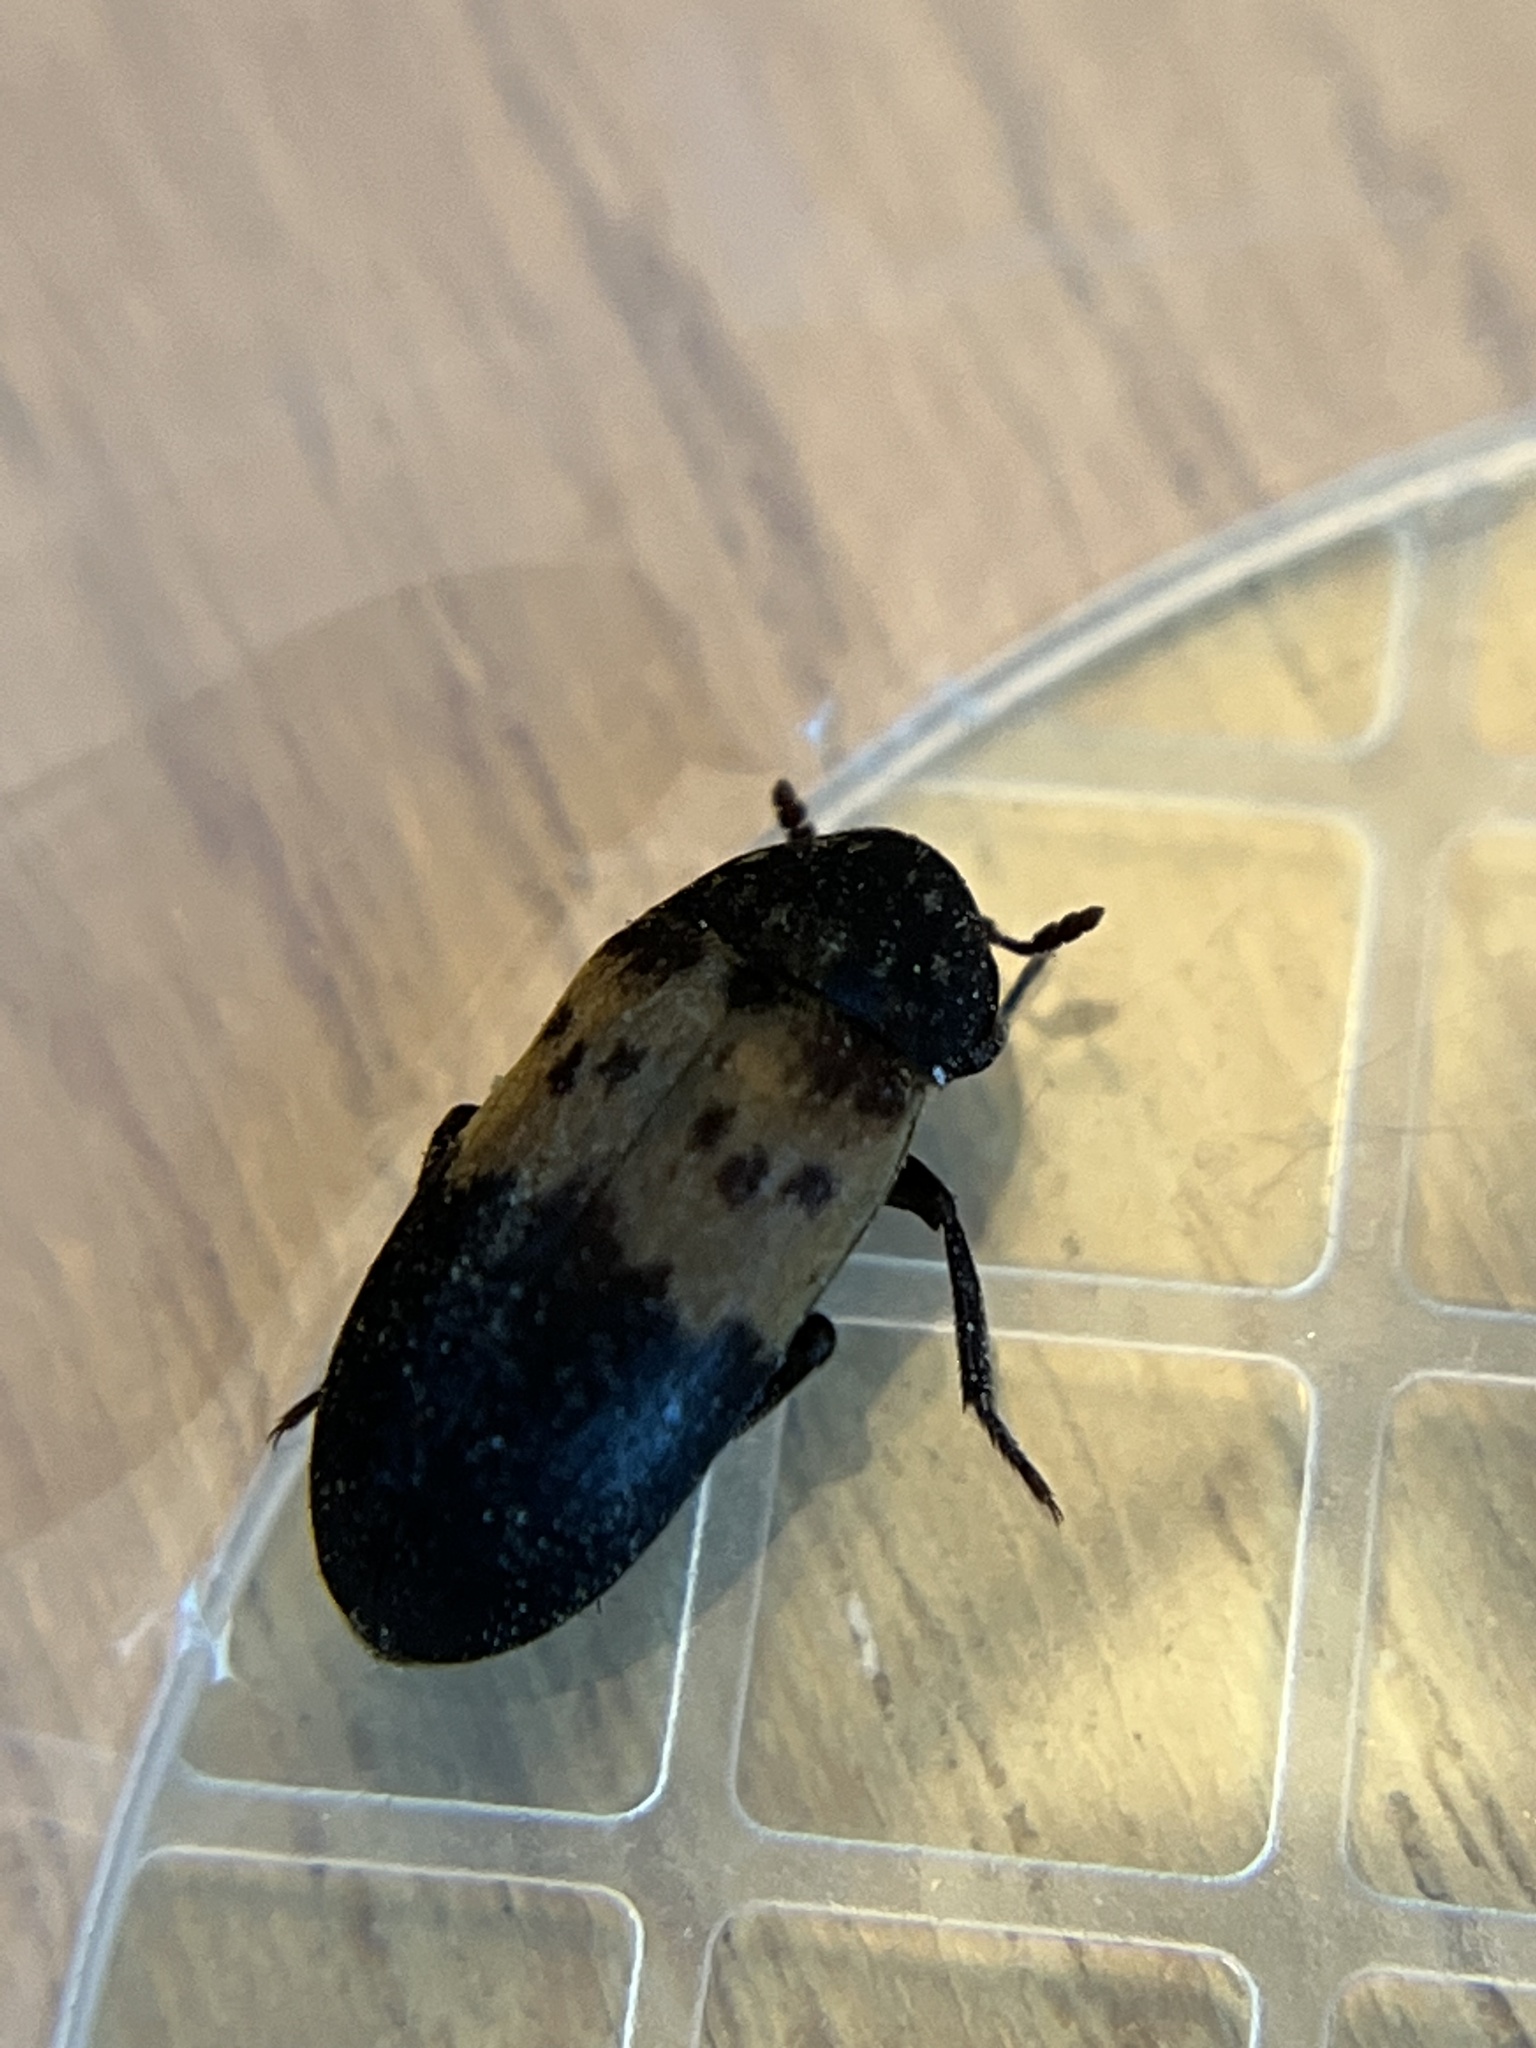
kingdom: Animalia
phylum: Arthropoda
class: Insecta
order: Coleoptera
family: Dermestidae
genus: Dermestes
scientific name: Dermestes lardarius
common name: Larder beetle
